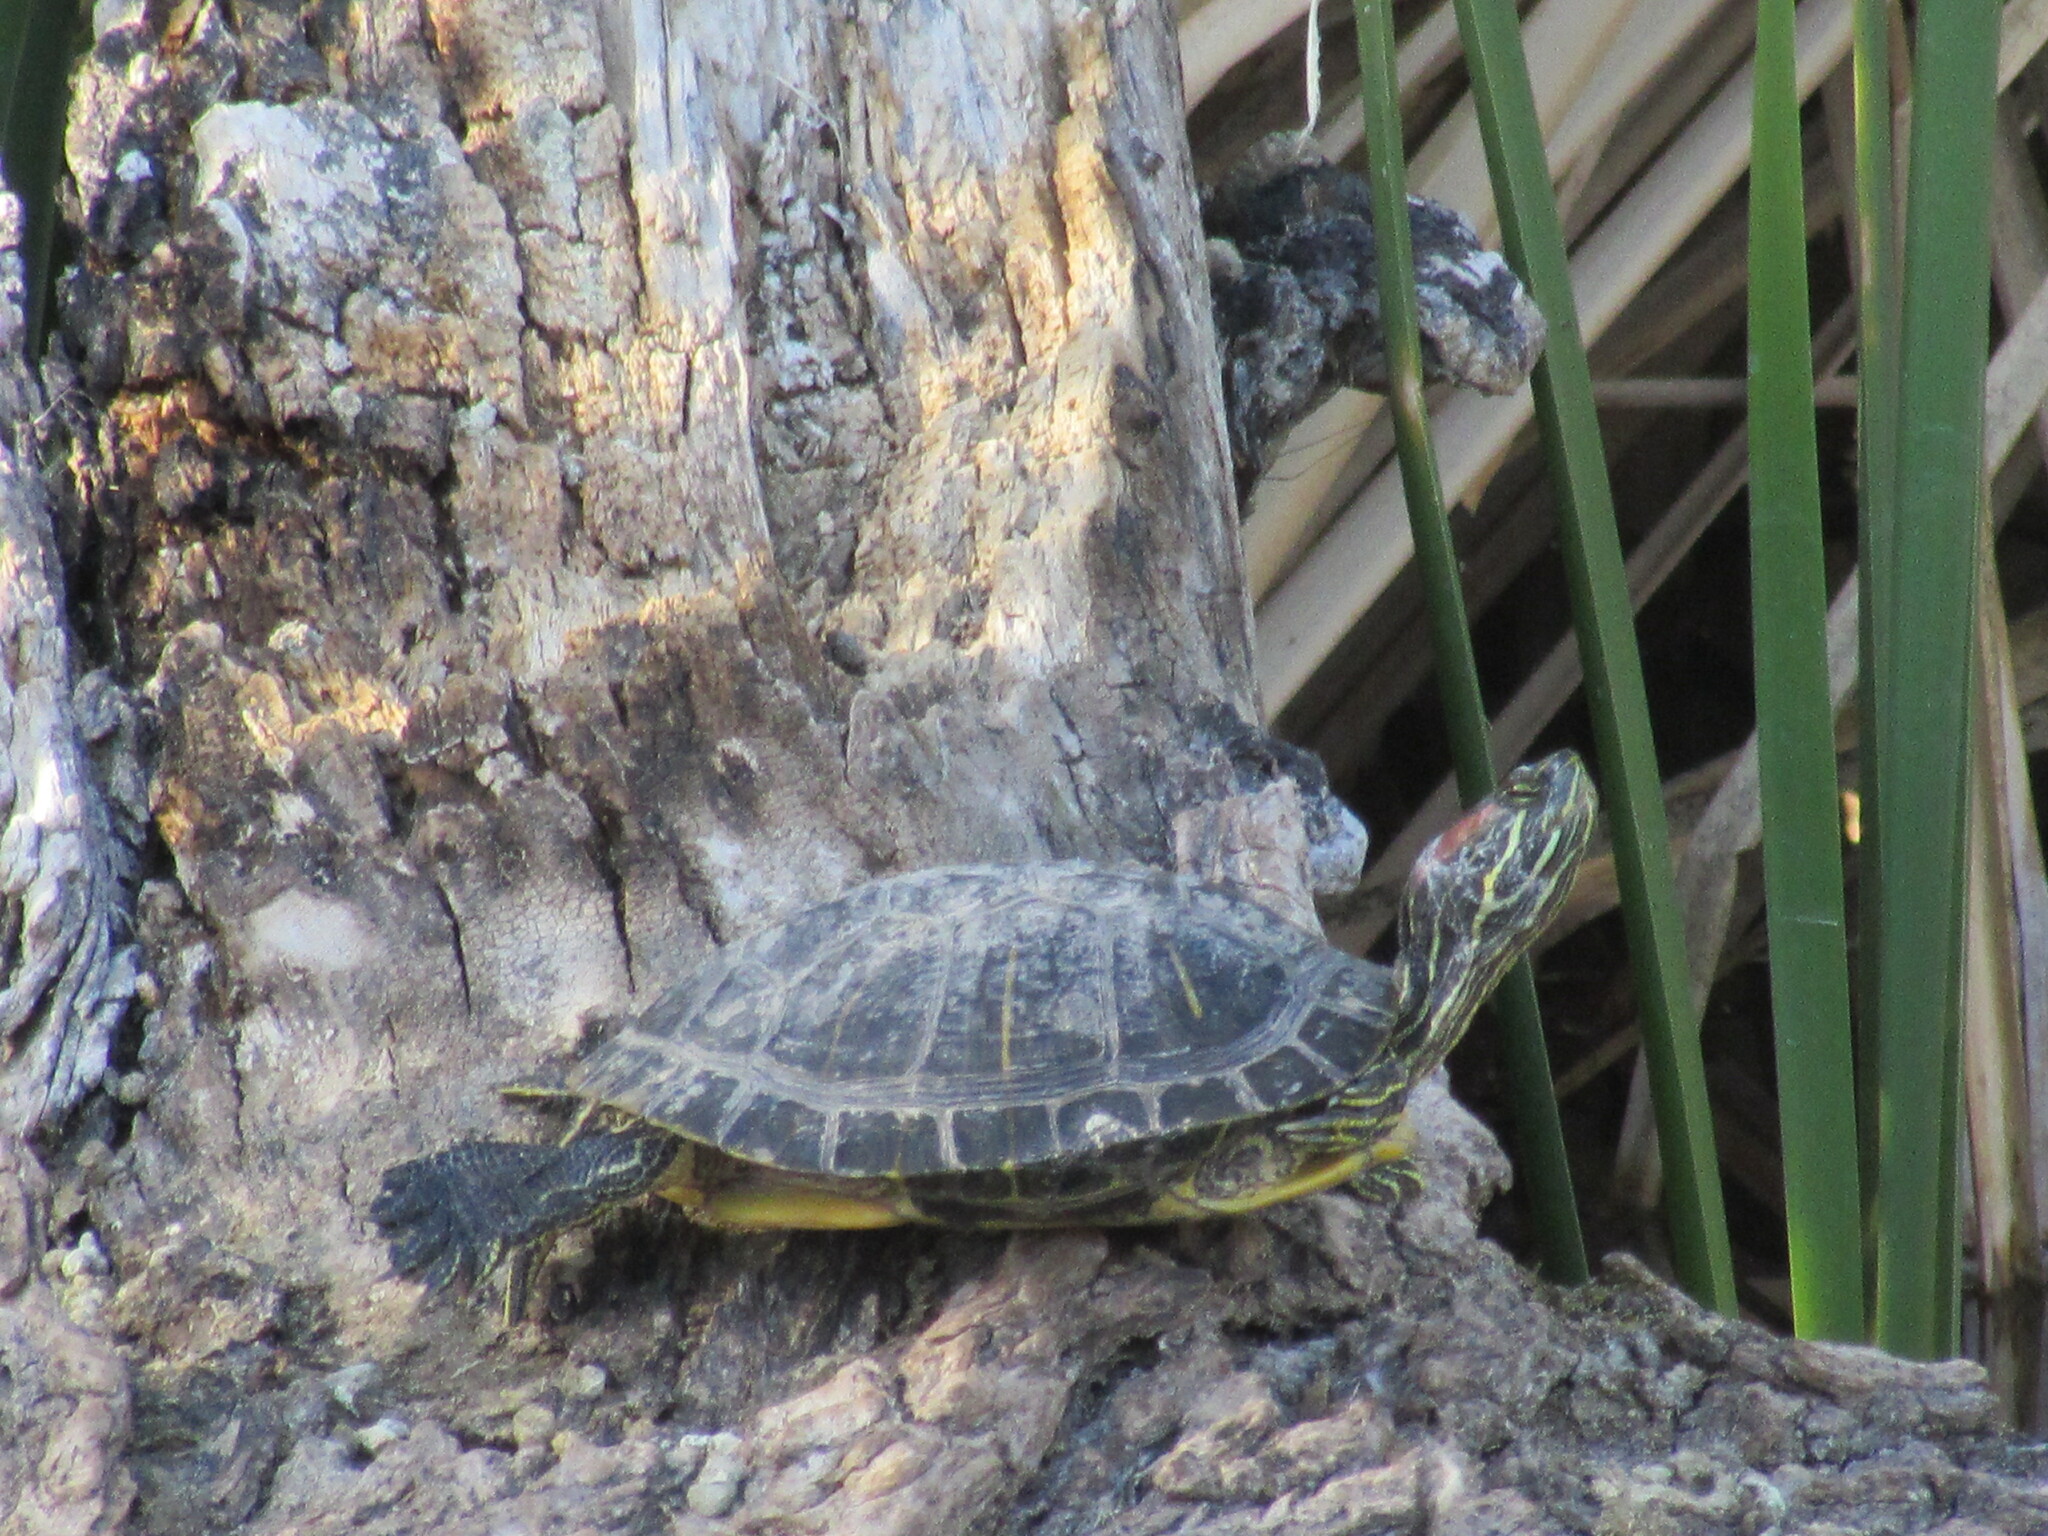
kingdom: Animalia
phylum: Chordata
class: Testudines
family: Emydidae
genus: Trachemys
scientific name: Trachemys scripta
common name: Slider
